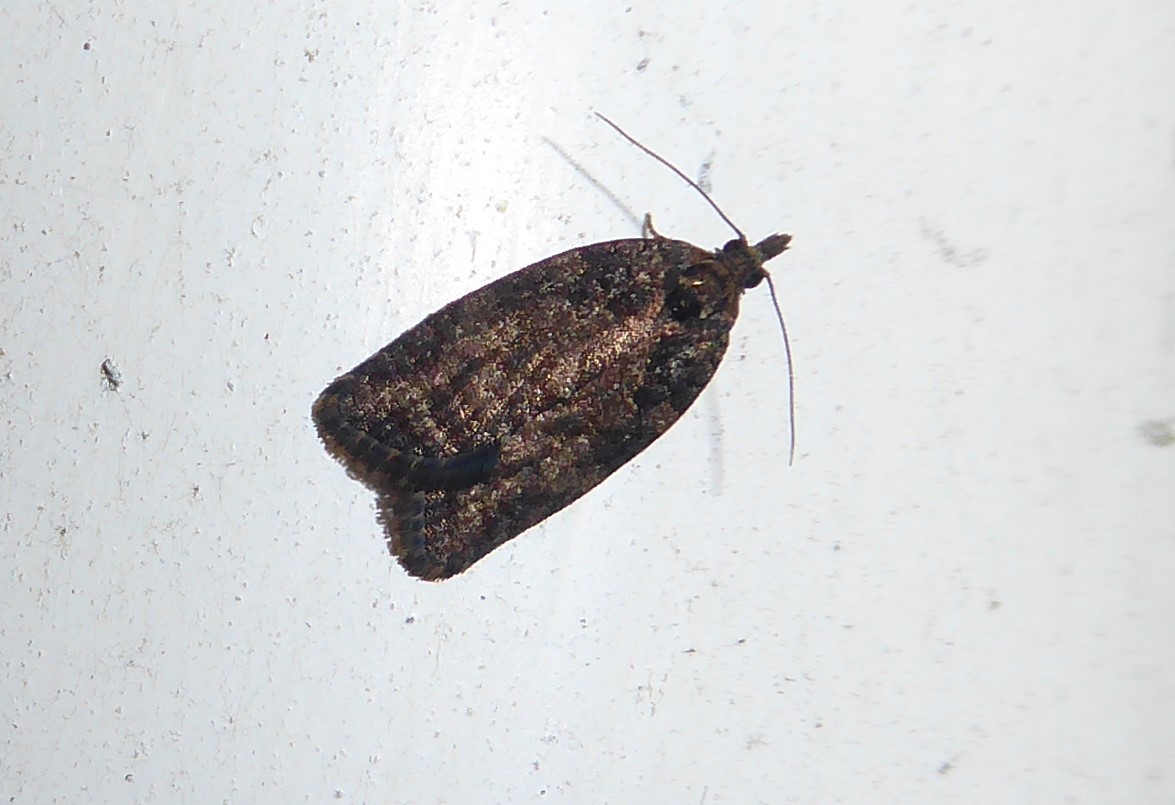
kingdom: Animalia
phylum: Arthropoda
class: Insecta
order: Lepidoptera
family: Tortricidae
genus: Capua
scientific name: Capua intractana
